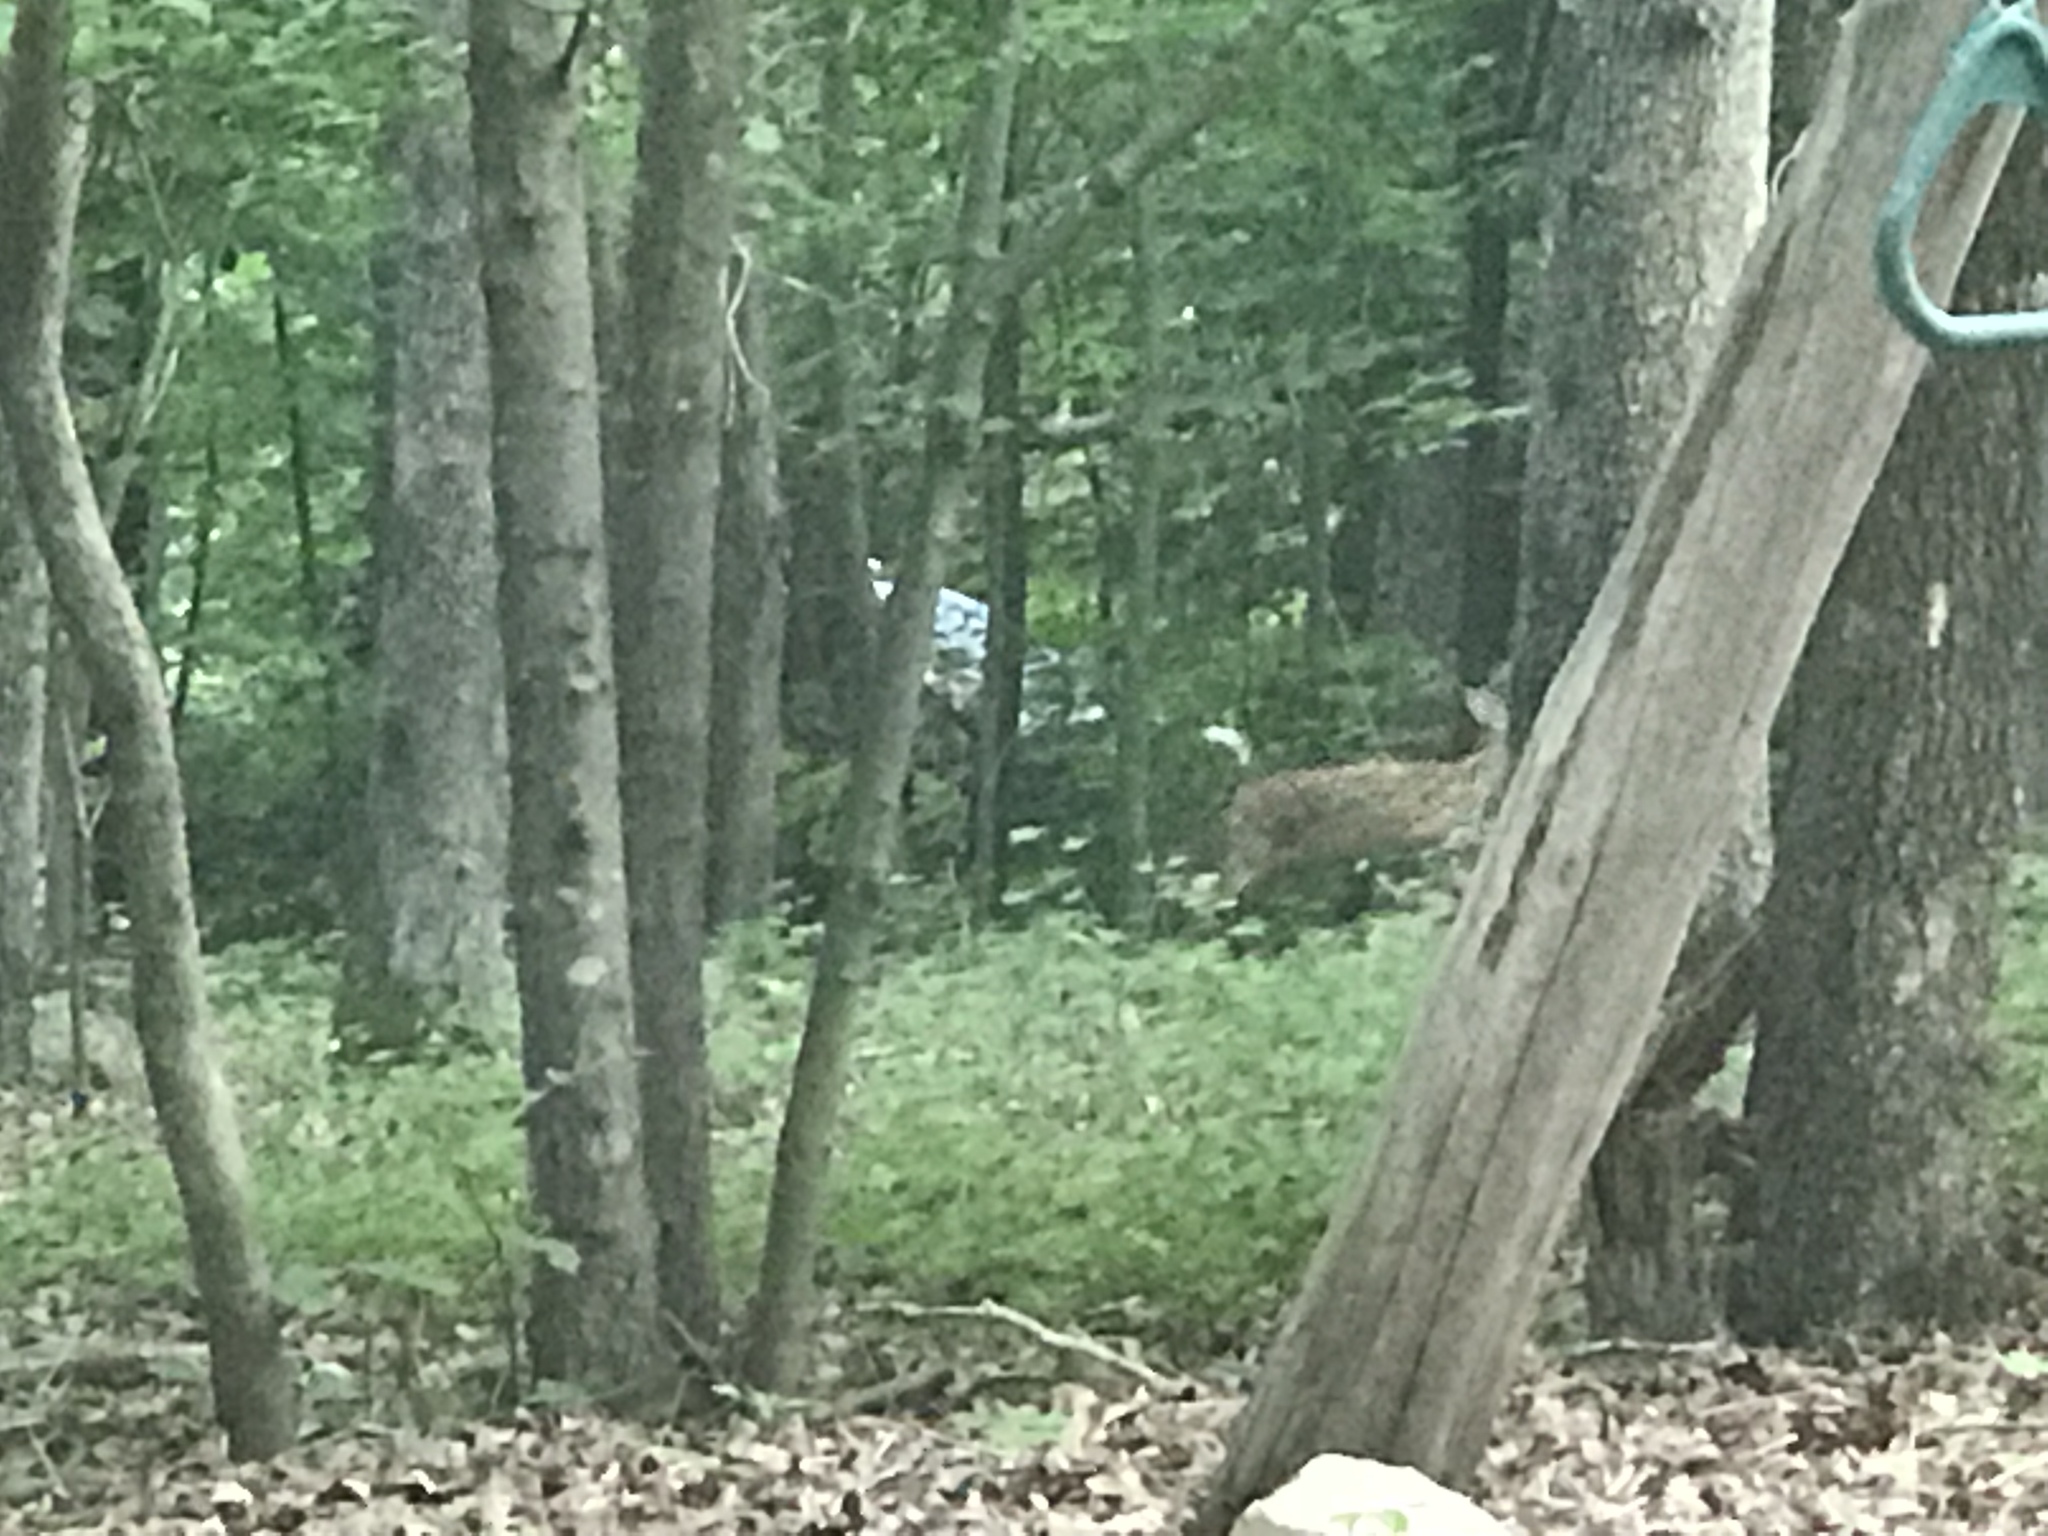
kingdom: Animalia
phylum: Chordata
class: Mammalia
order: Artiodactyla
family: Cervidae
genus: Odocoileus
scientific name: Odocoileus virginianus
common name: White-tailed deer
